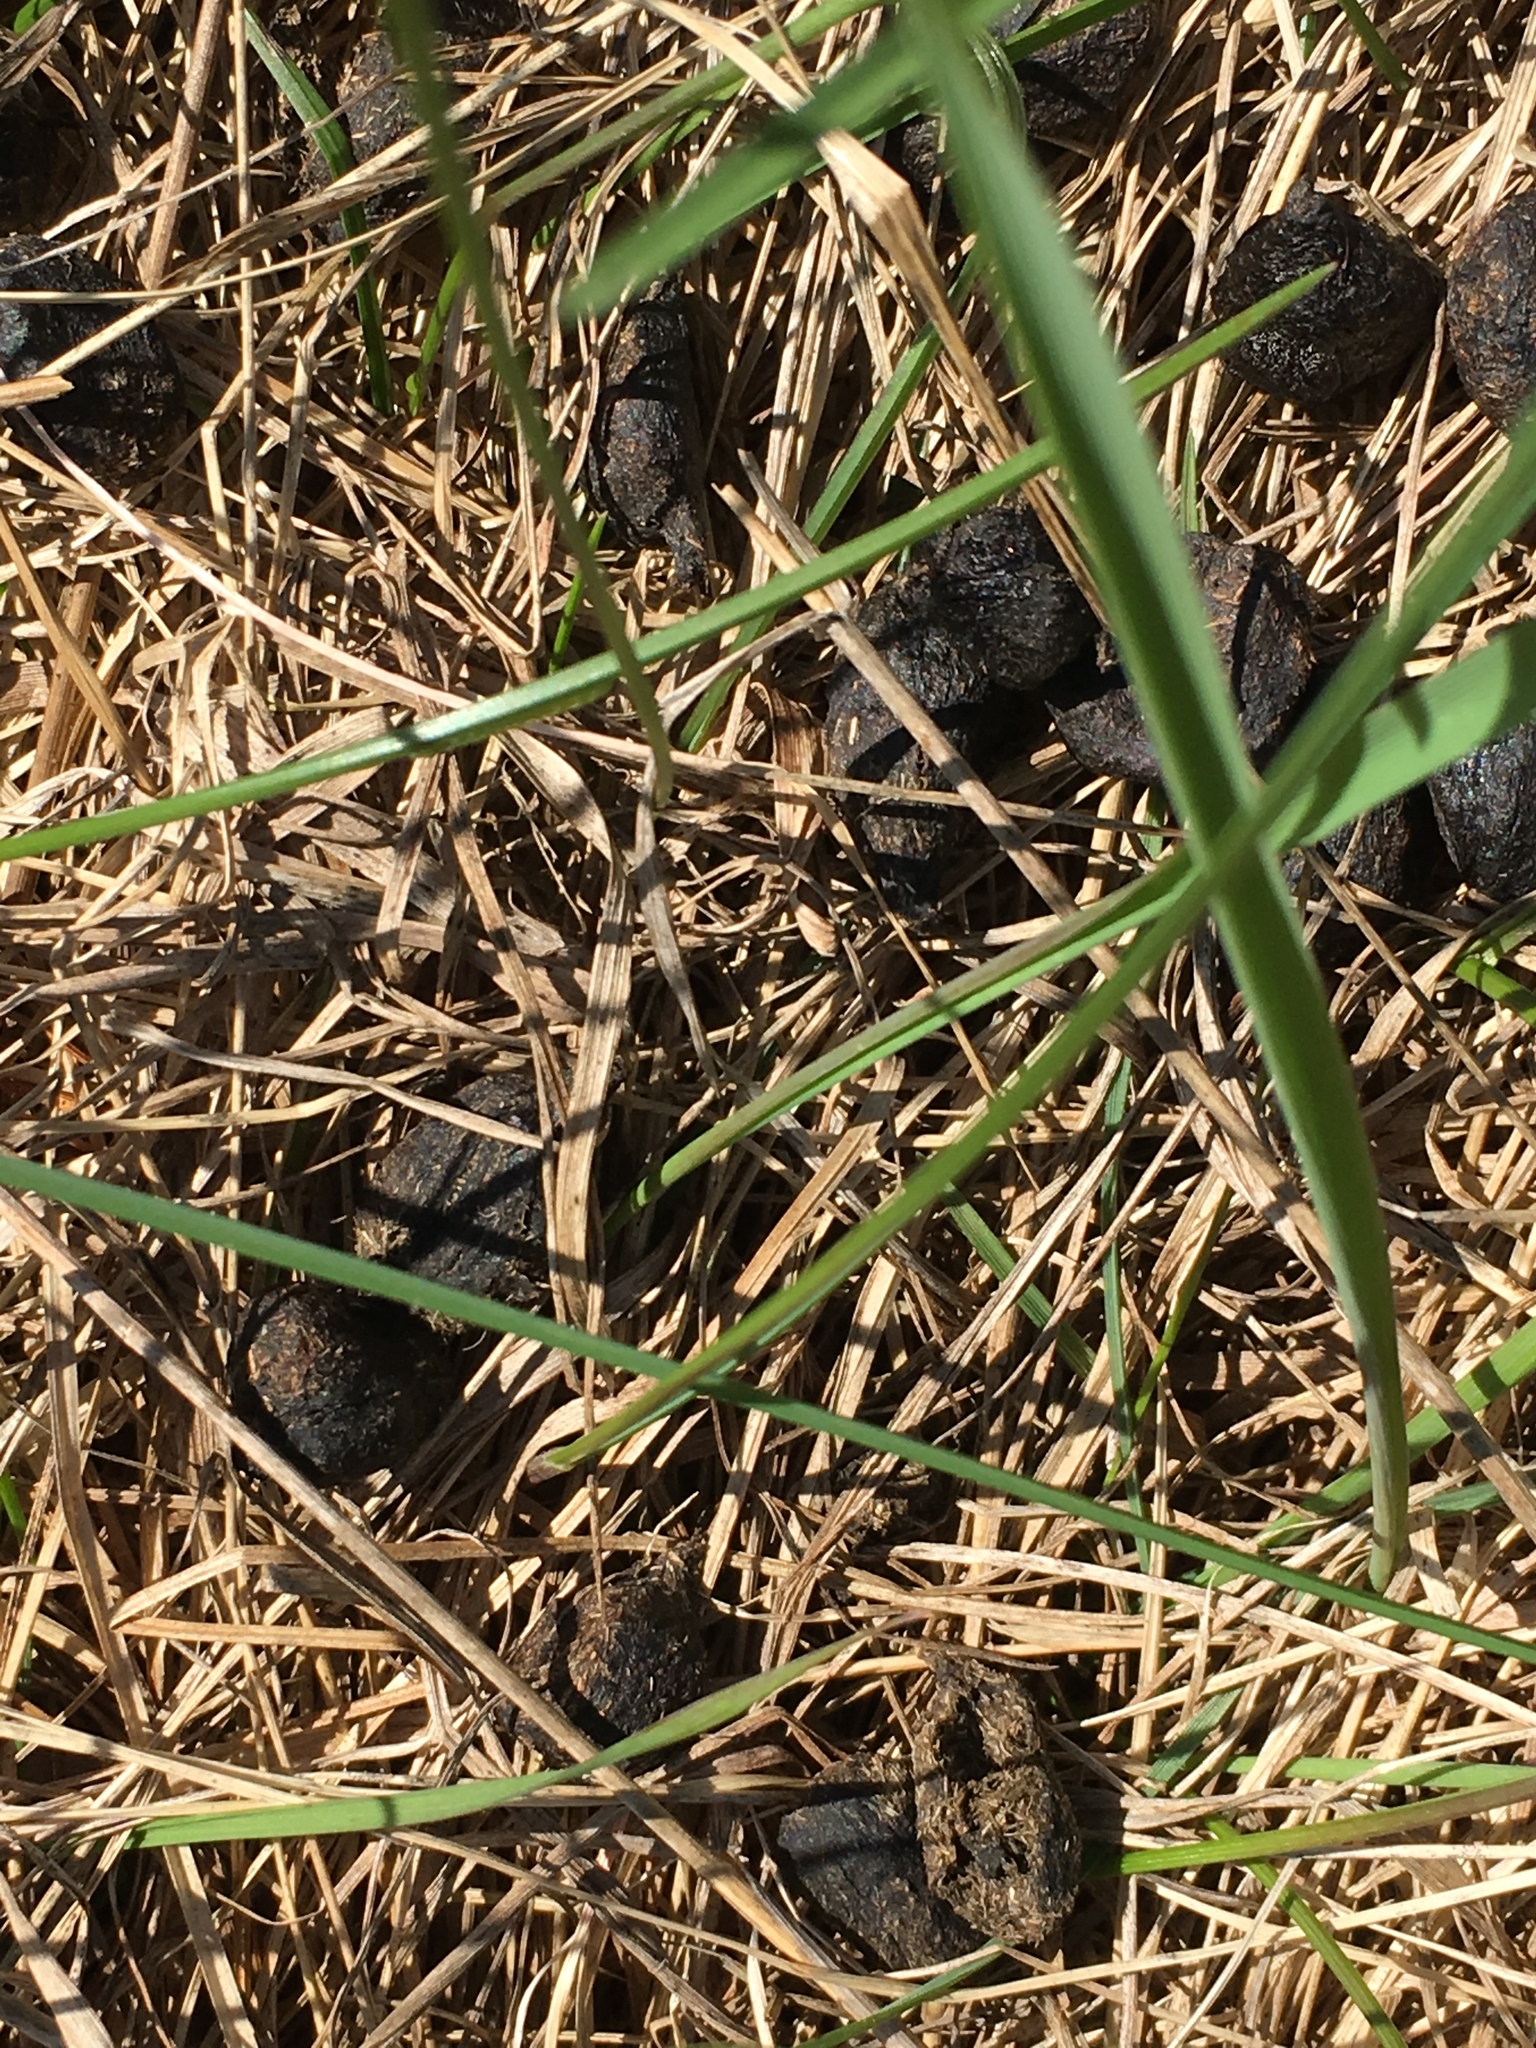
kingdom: Animalia
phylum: Chordata
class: Mammalia
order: Artiodactyla
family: Cervidae
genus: Odocoileus
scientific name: Odocoileus virginianus
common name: White-tailed deer
